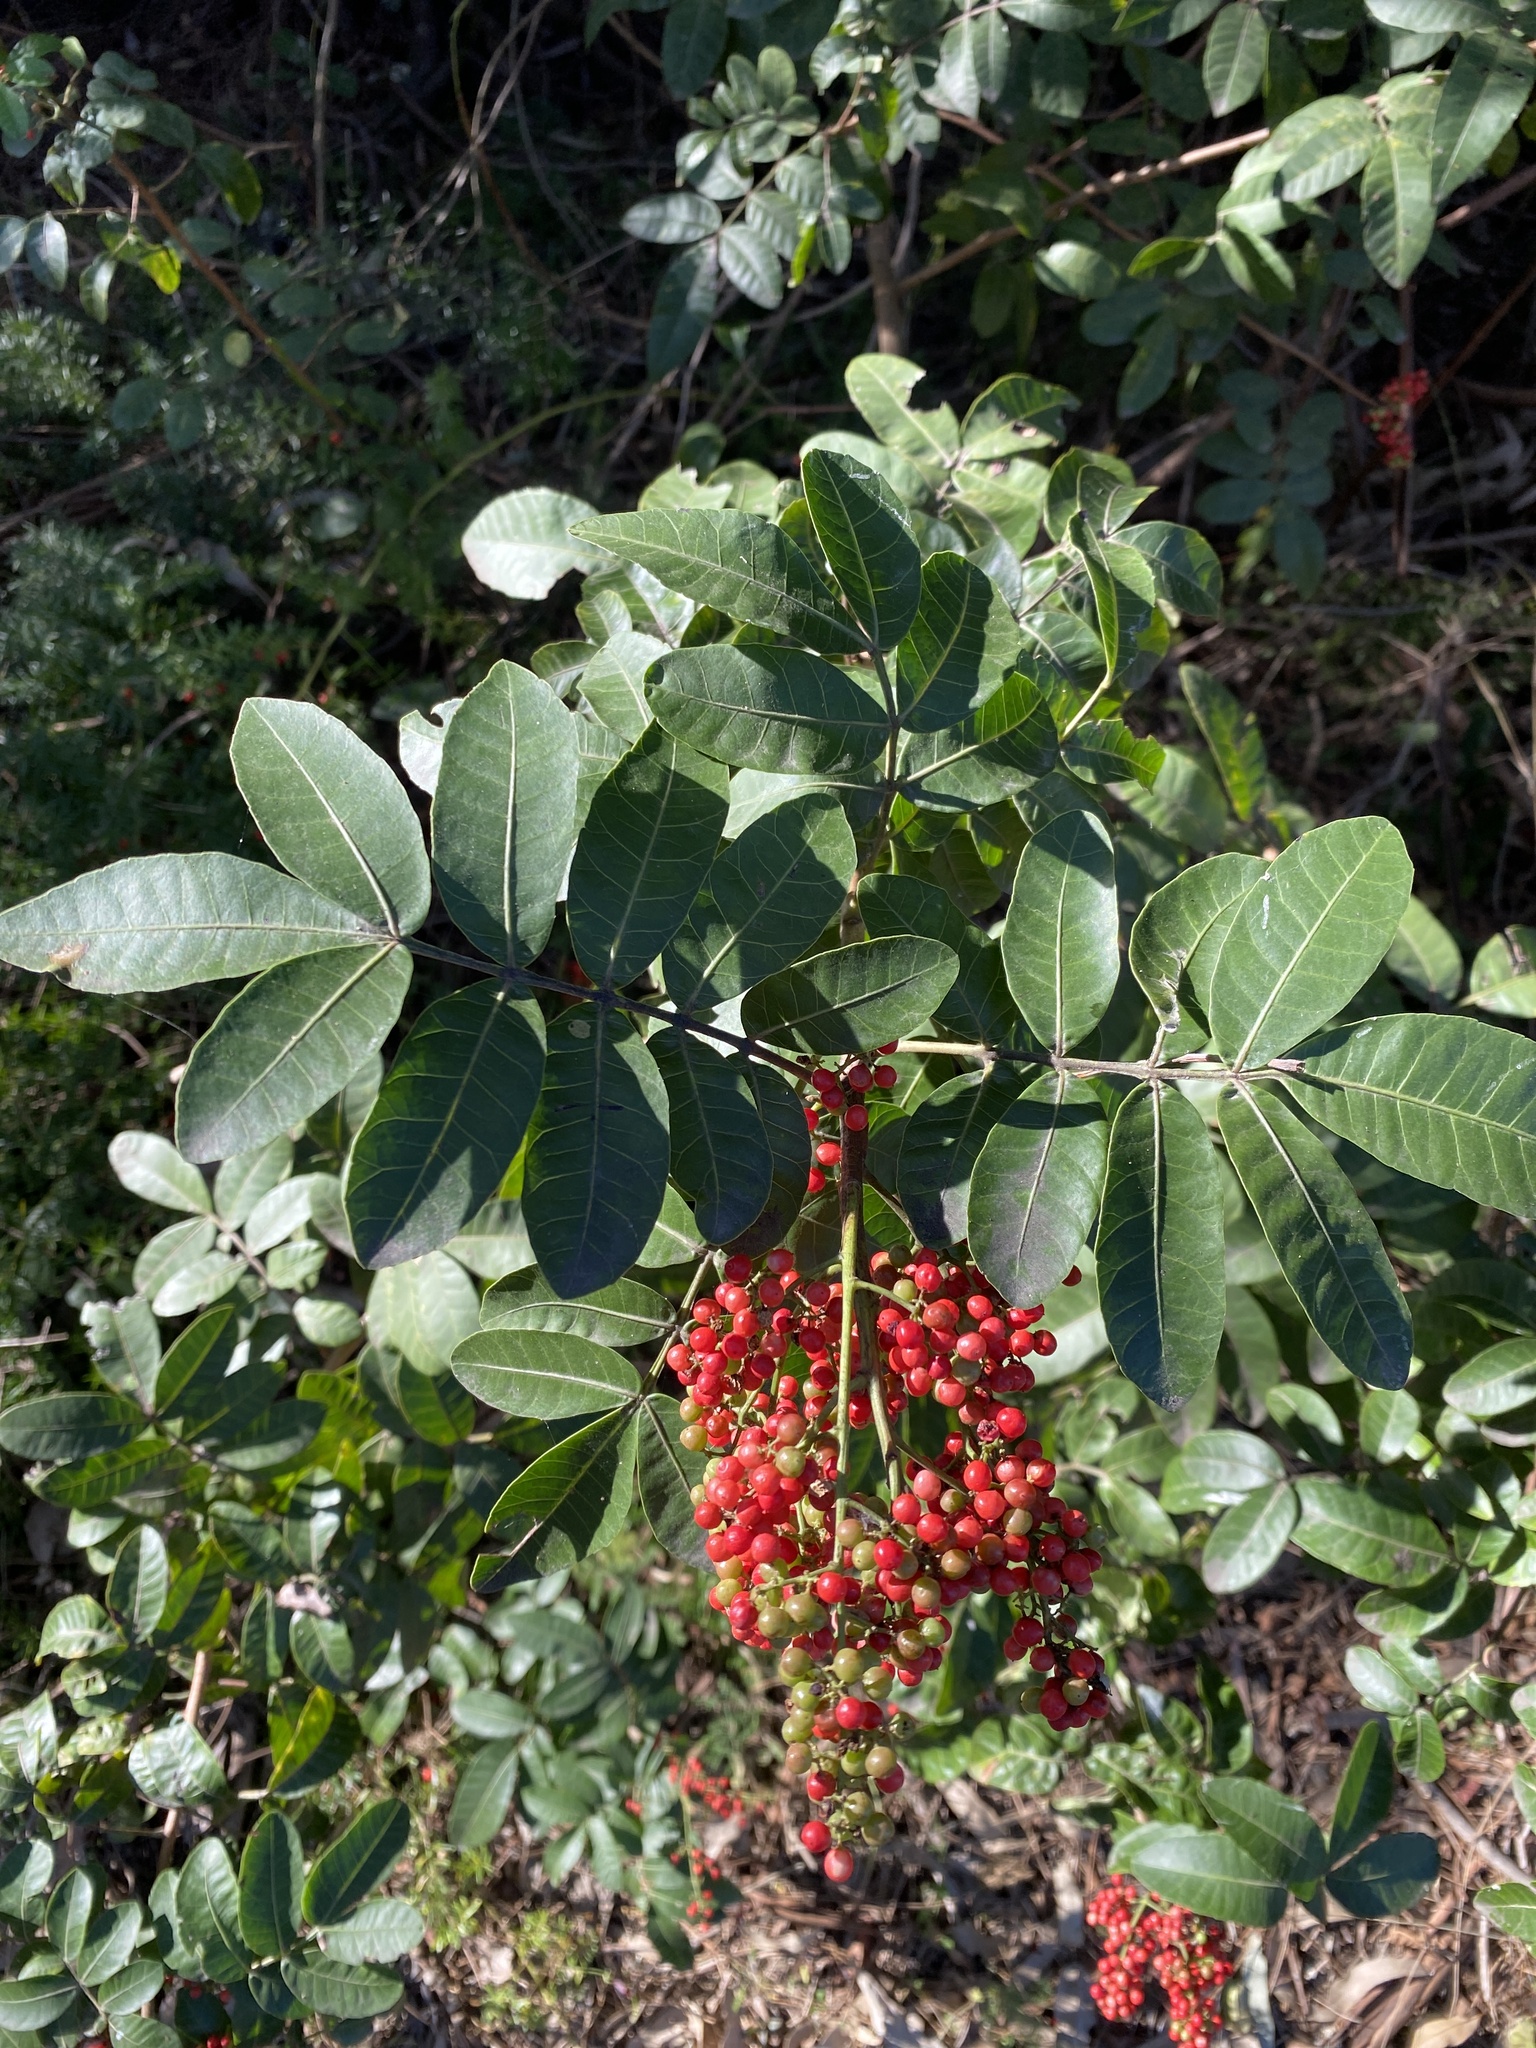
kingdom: Plantae
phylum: Tracheophyta
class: Magnoliopsida
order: Sapindales
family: Anacardiaceae
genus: Schinus
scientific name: Schinus terebinthifolia
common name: Brazilian peppertree
